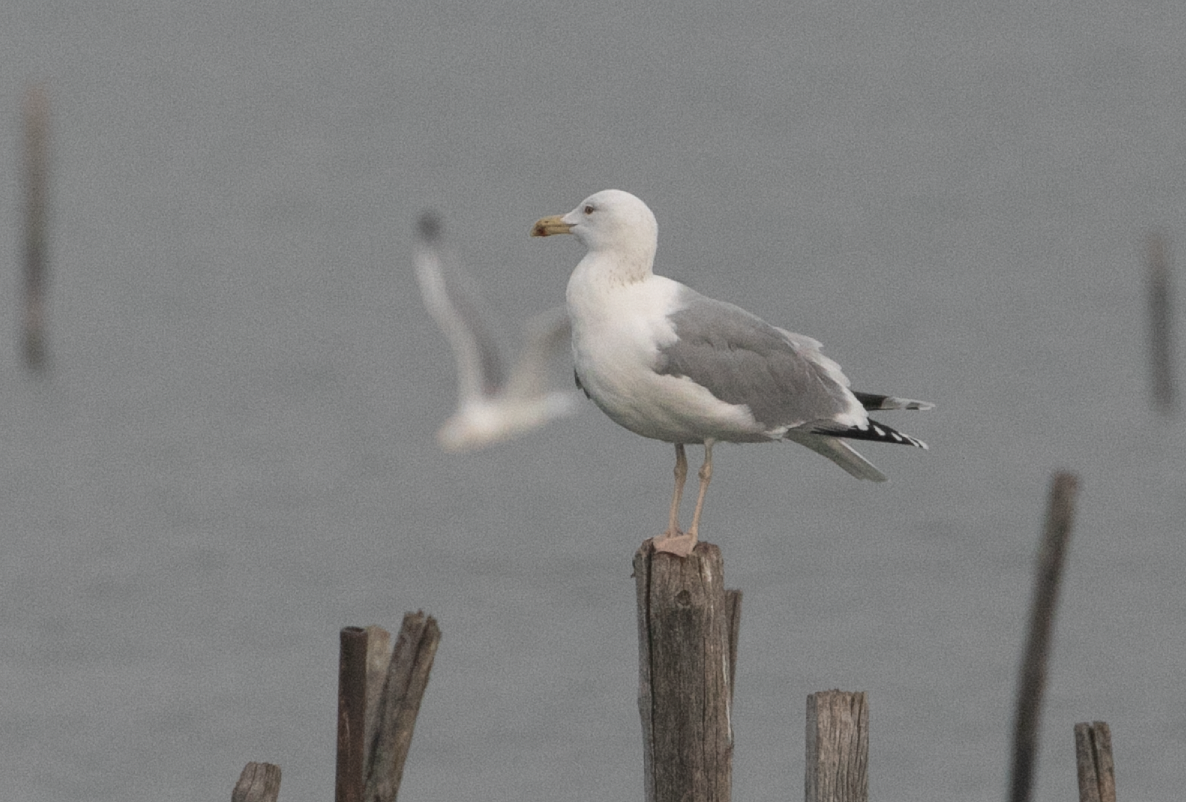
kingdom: Animalia
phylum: Chordata
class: Aves
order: Charadriiformes
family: Laridae
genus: Larus
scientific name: Larus cachinnans
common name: Caspian gull
